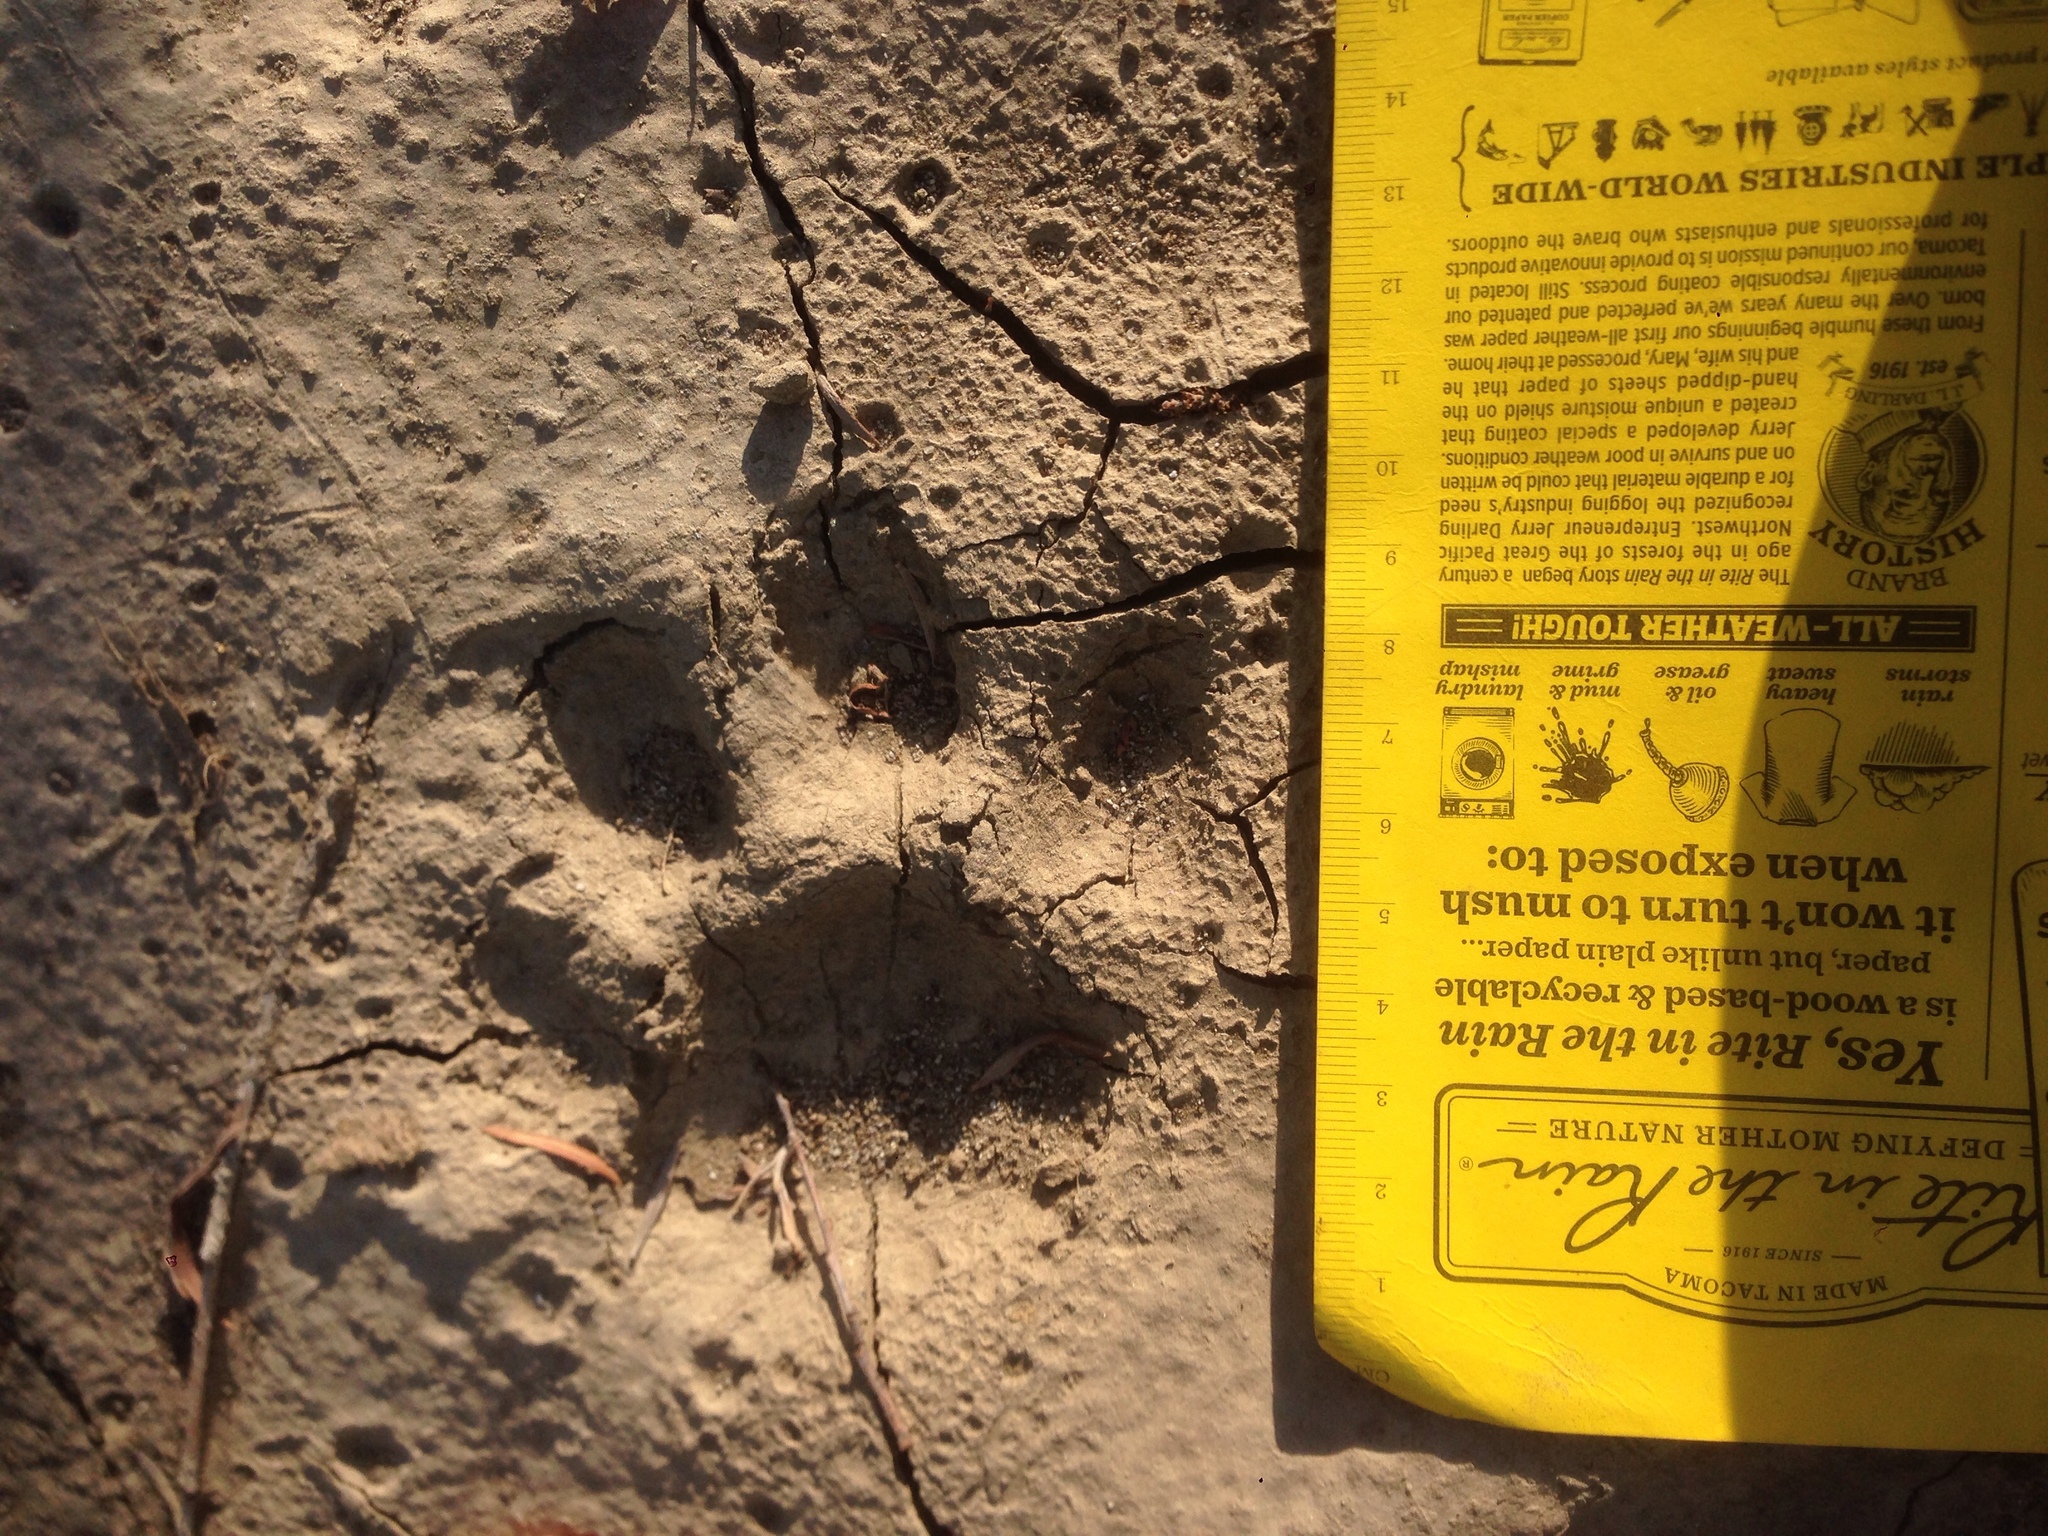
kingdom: Animalia
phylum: Chordata
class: Mammalia
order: Carnivora
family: Felidae
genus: Puma
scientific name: Puma concolor
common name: Puma
